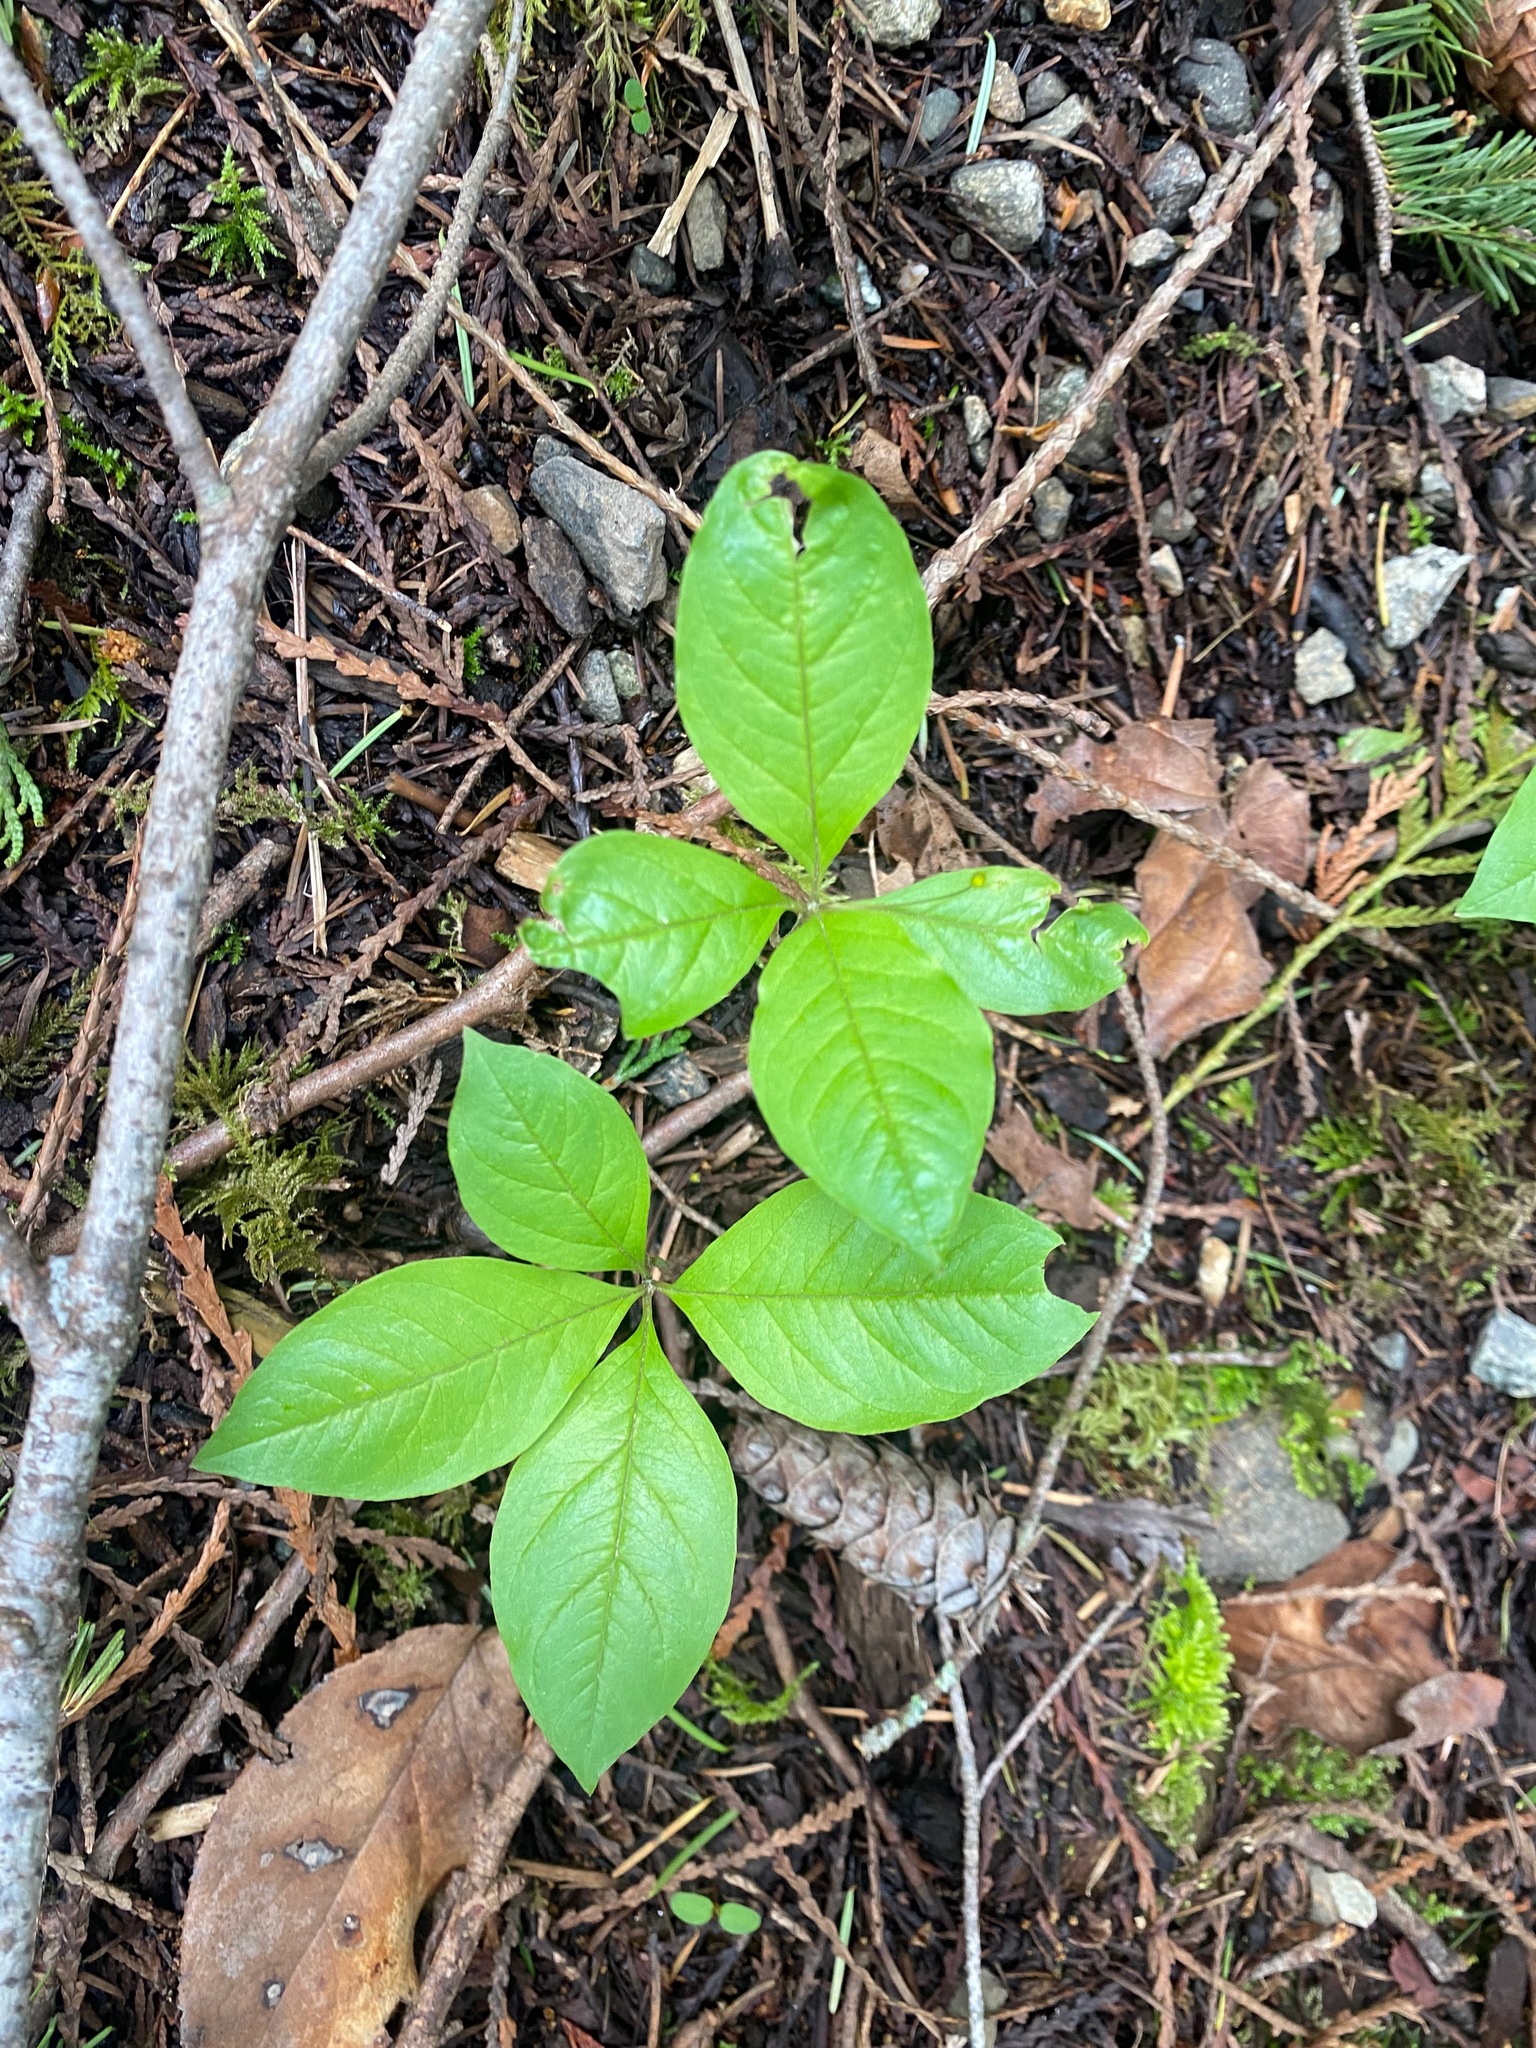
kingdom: Plantae
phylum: Tracheophyta
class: Magnoliopsida
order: Ericales
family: Primulaceae
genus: Lysimachia
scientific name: Lysimachia latifolia
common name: Pacific starflower
